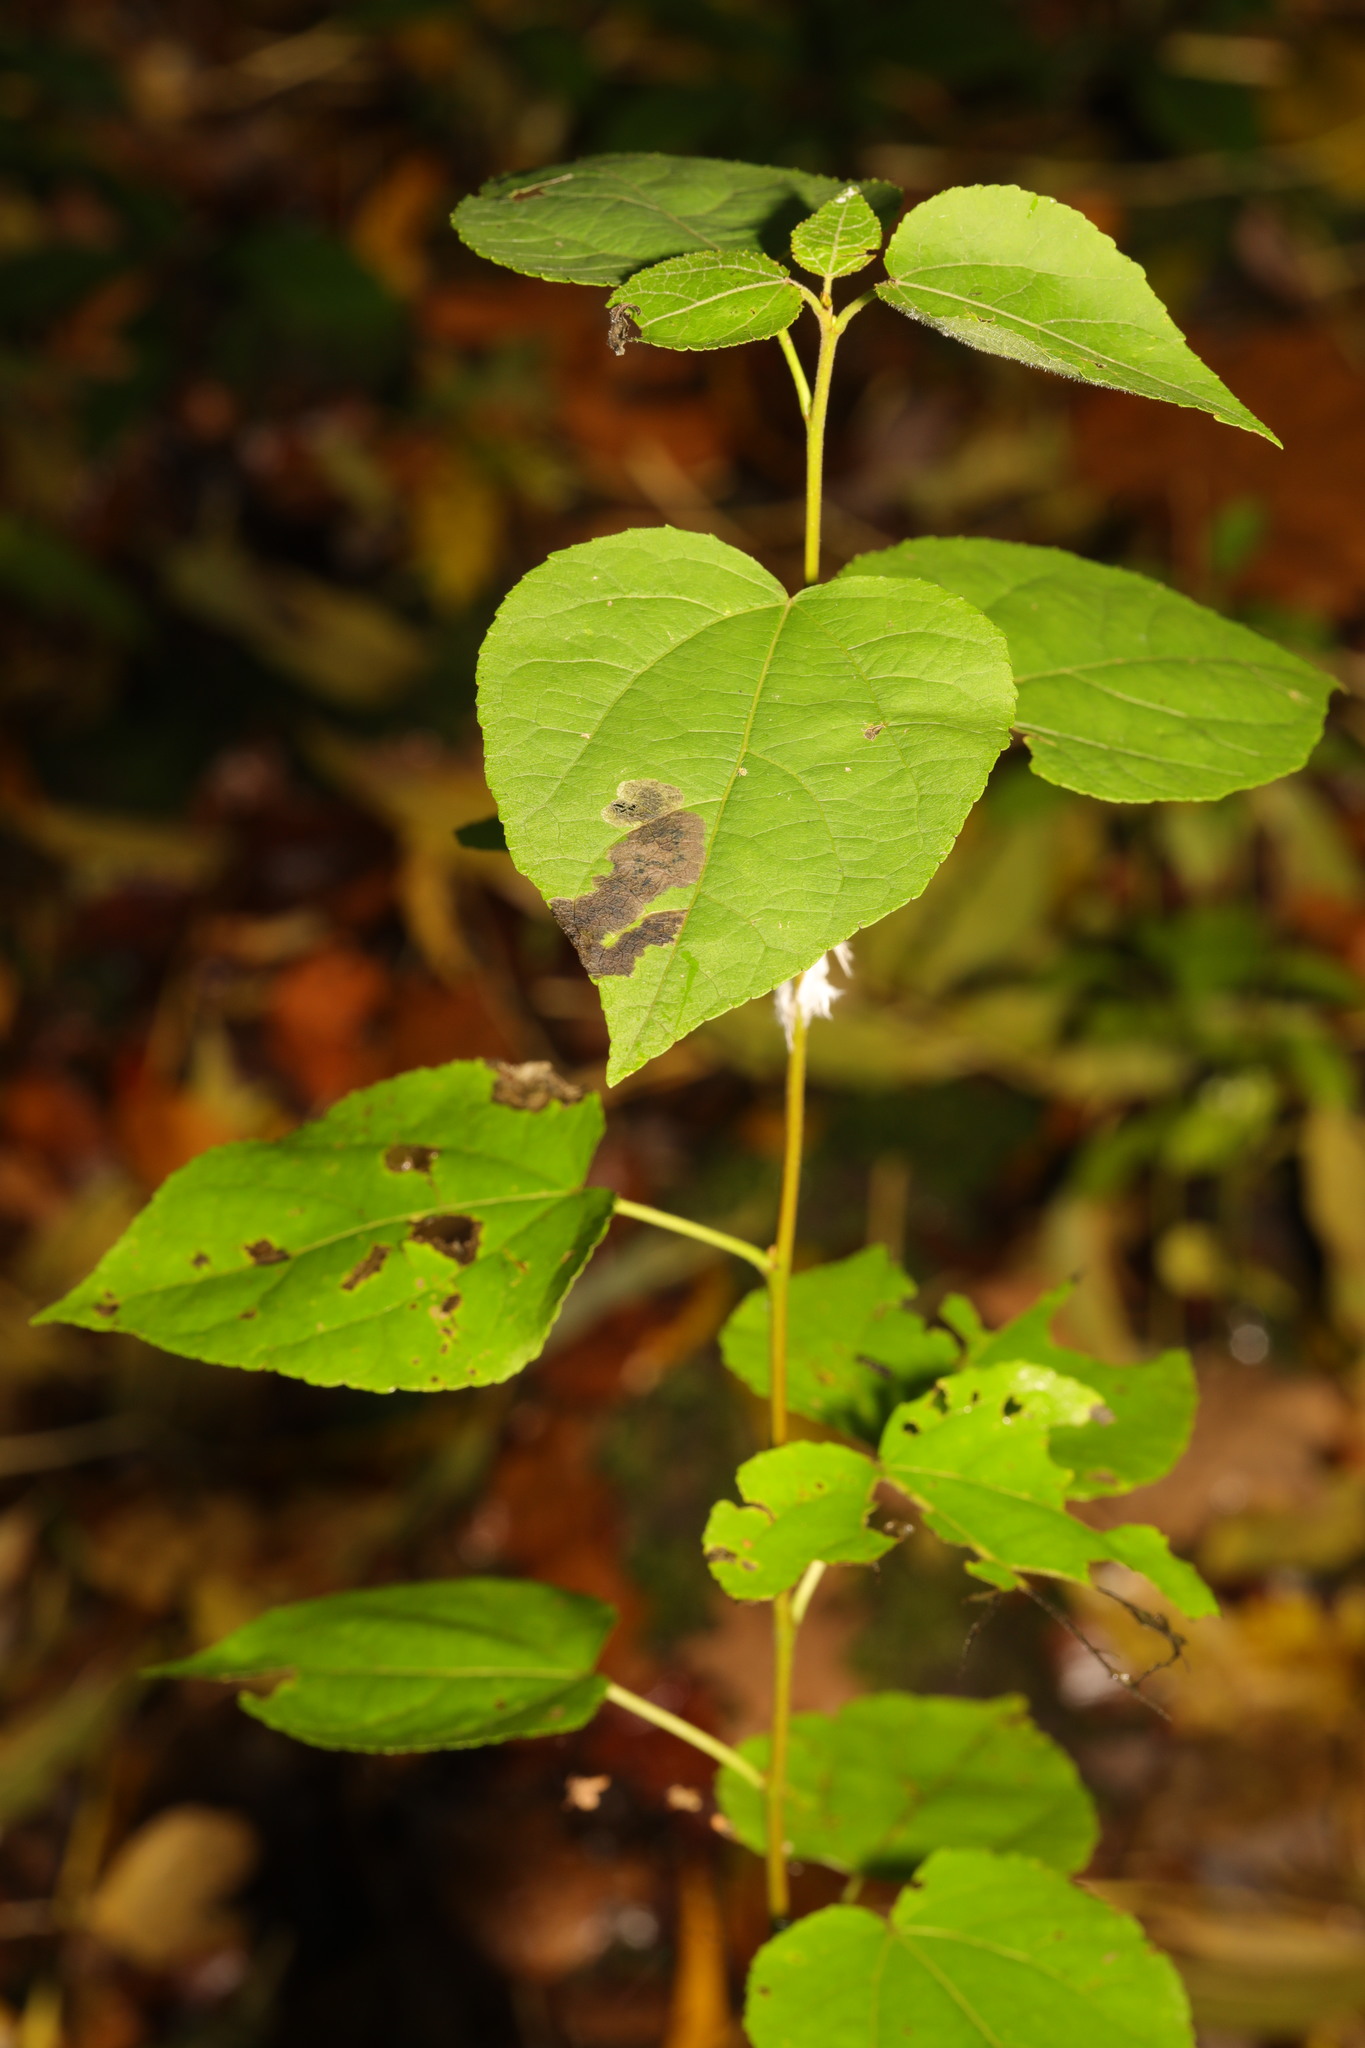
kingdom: Plantae
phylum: Tracheophyta
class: Magnoliopsida
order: Malpighiales
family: Salicaceae
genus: Populus
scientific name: Populus tremula
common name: European aspen
